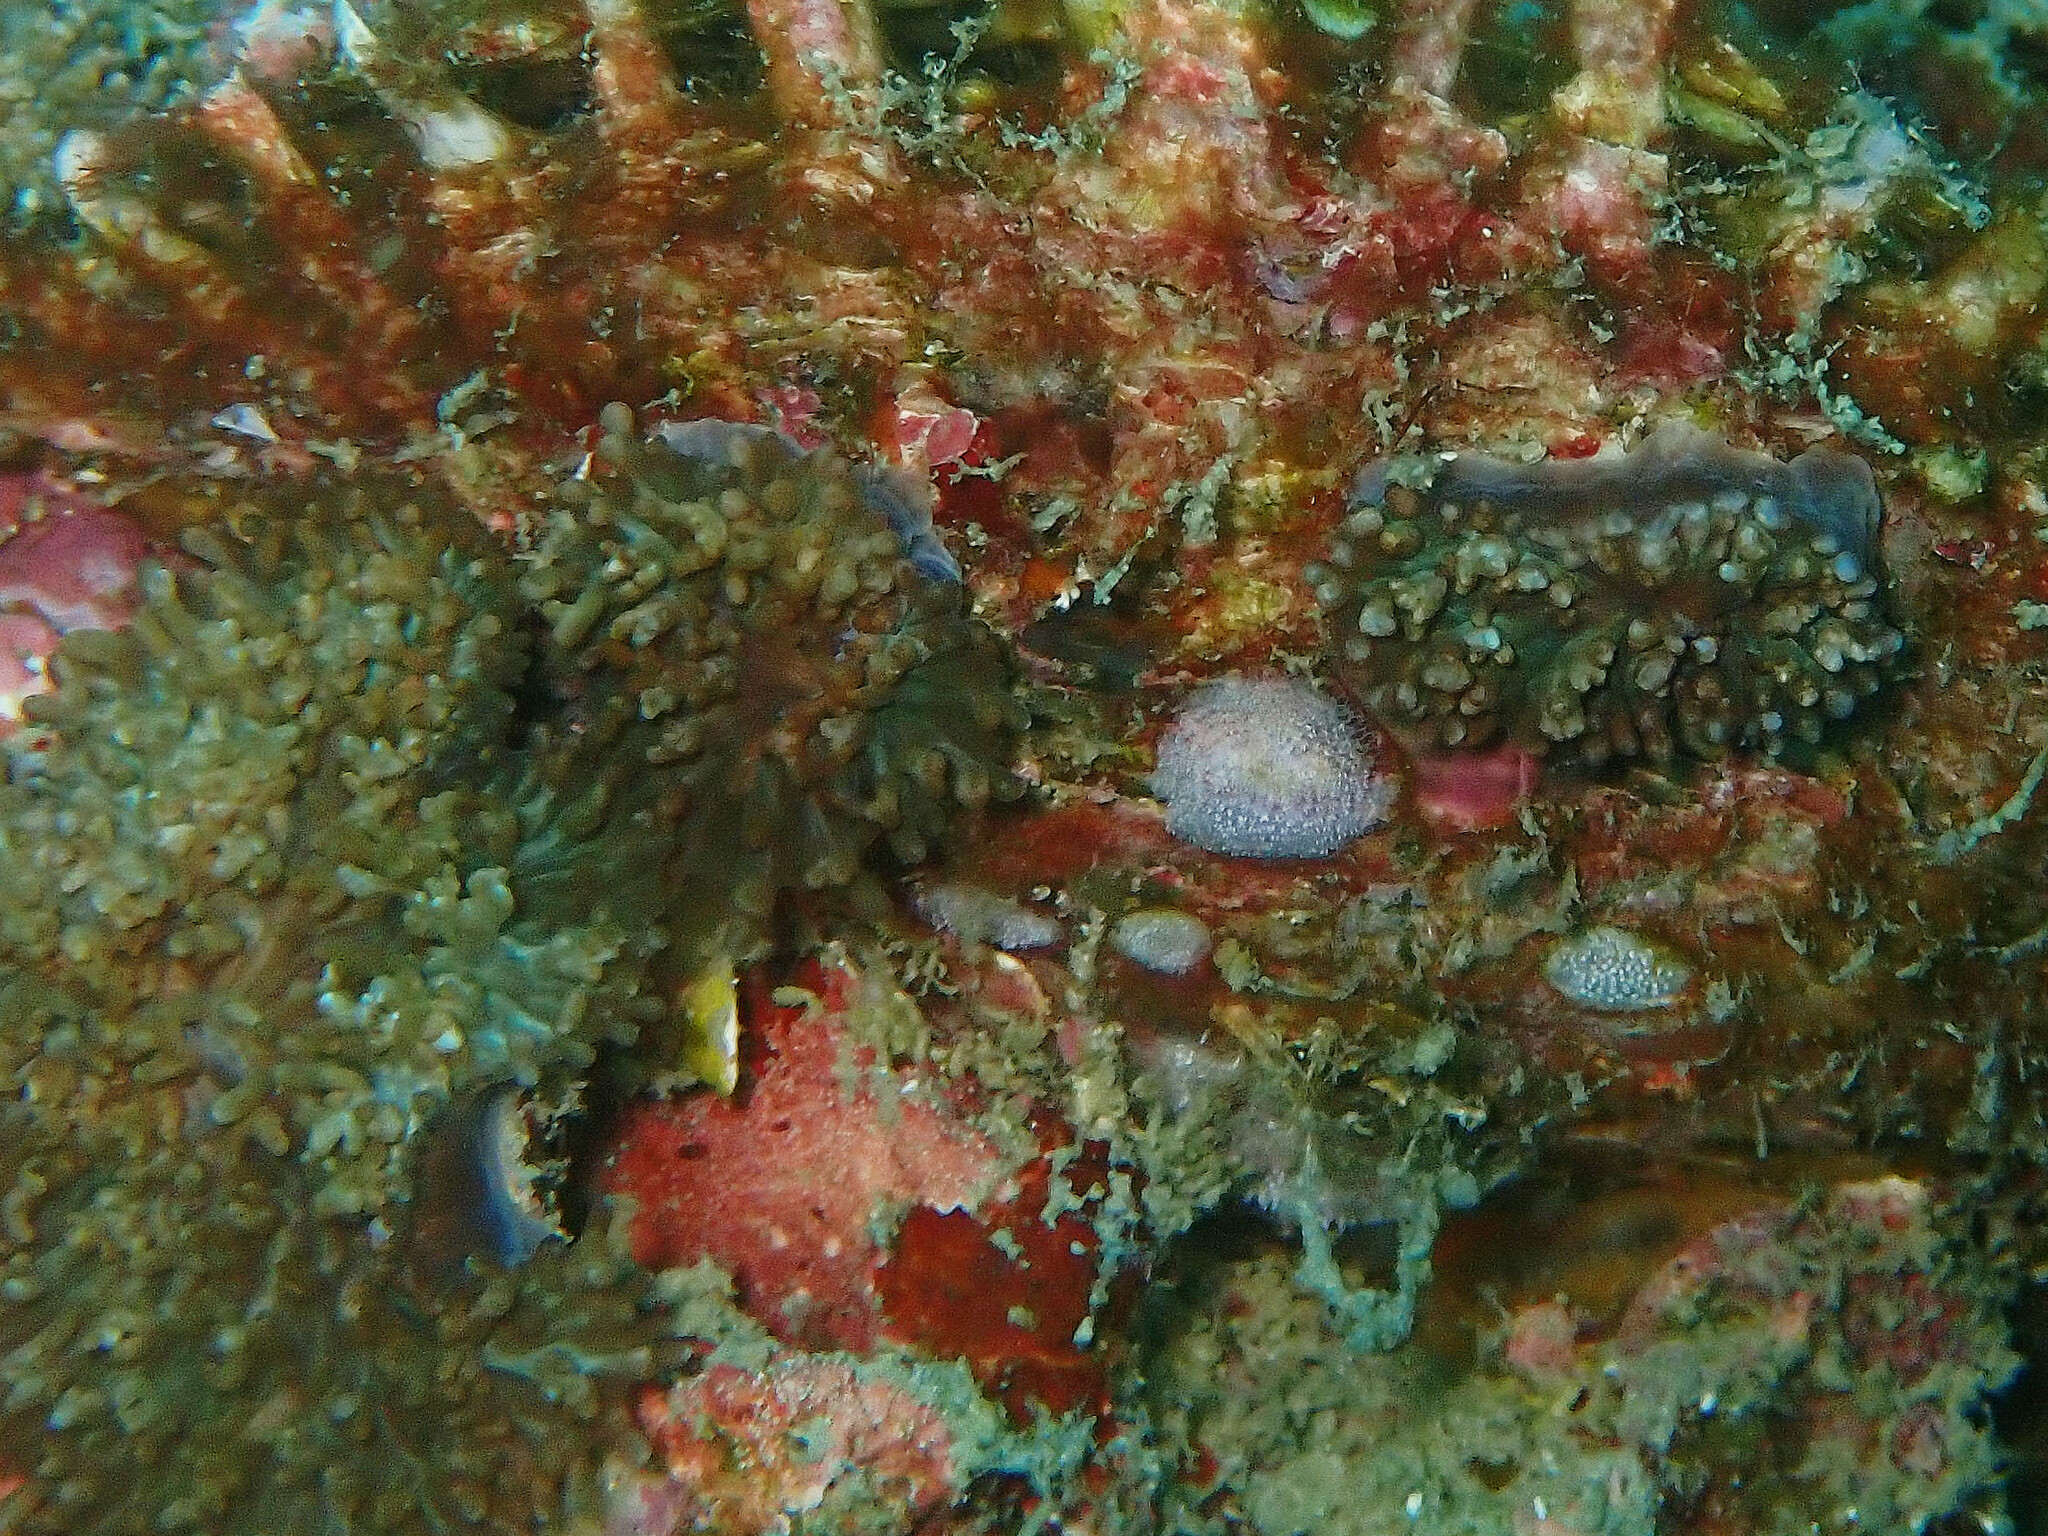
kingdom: Animalia
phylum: Cnidaria
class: Anthozoa
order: Corallimorpharia
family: Discosomidae
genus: Rhodactis
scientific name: Rhodactis rhodostoma
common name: Red-mouth mushroom anemone
